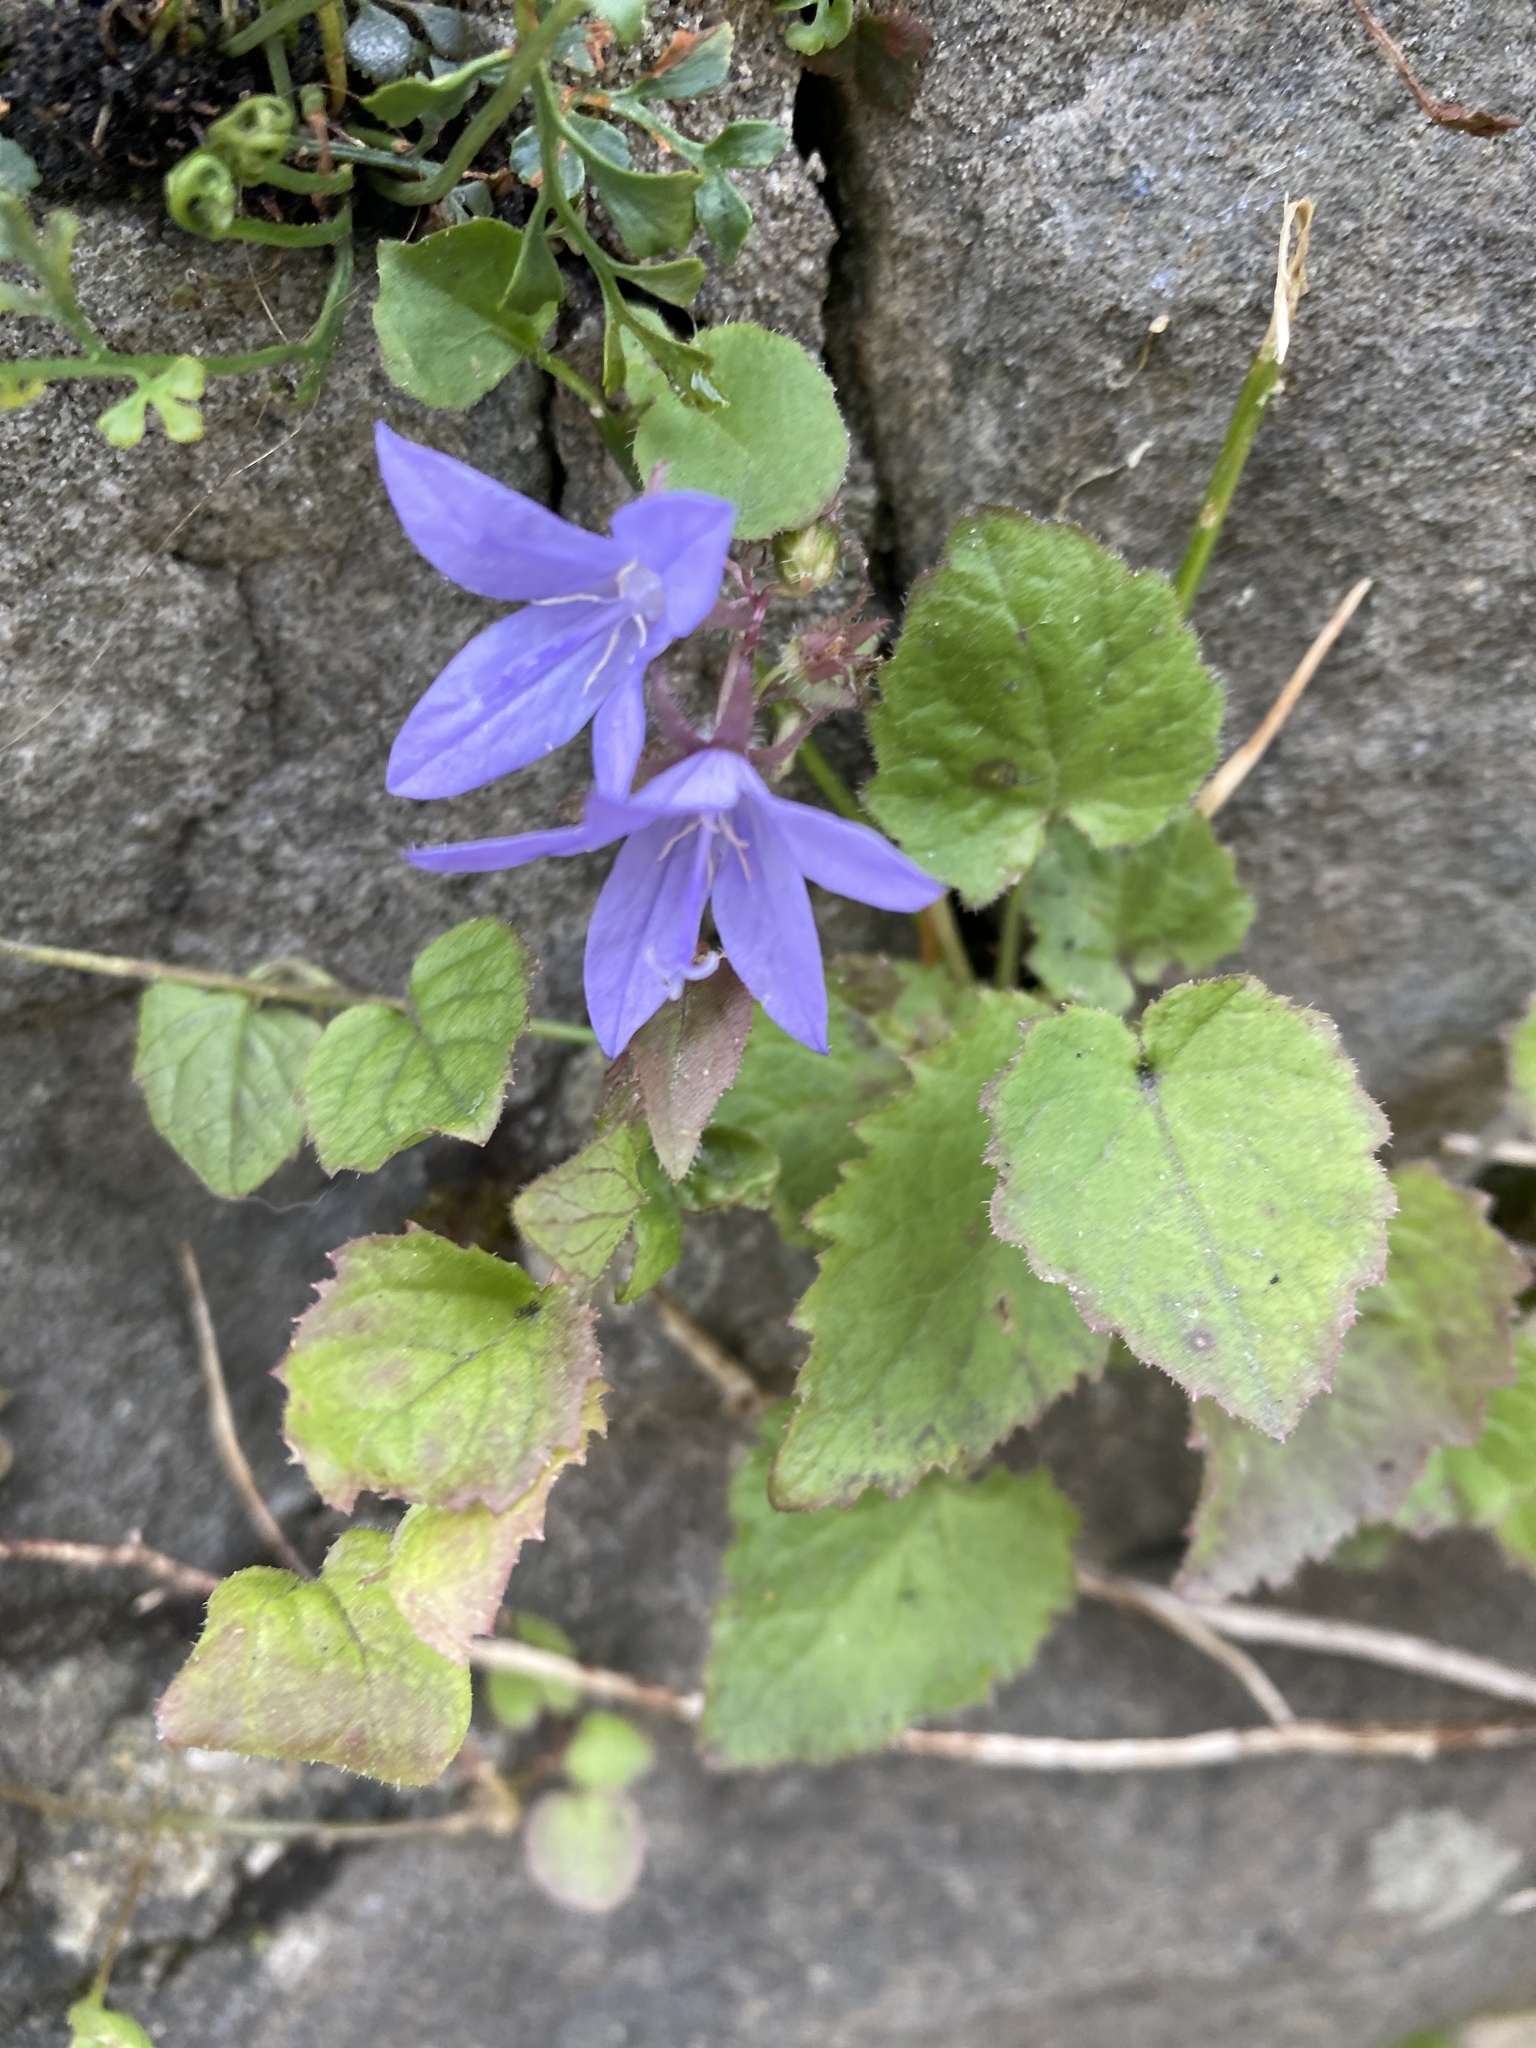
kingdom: Plantae
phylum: Tracheophyta
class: Magnoliopsida
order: Asterales
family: Campanulaceae
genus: Campanula
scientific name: Campanula poscharskyana
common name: Trailing bellflower
